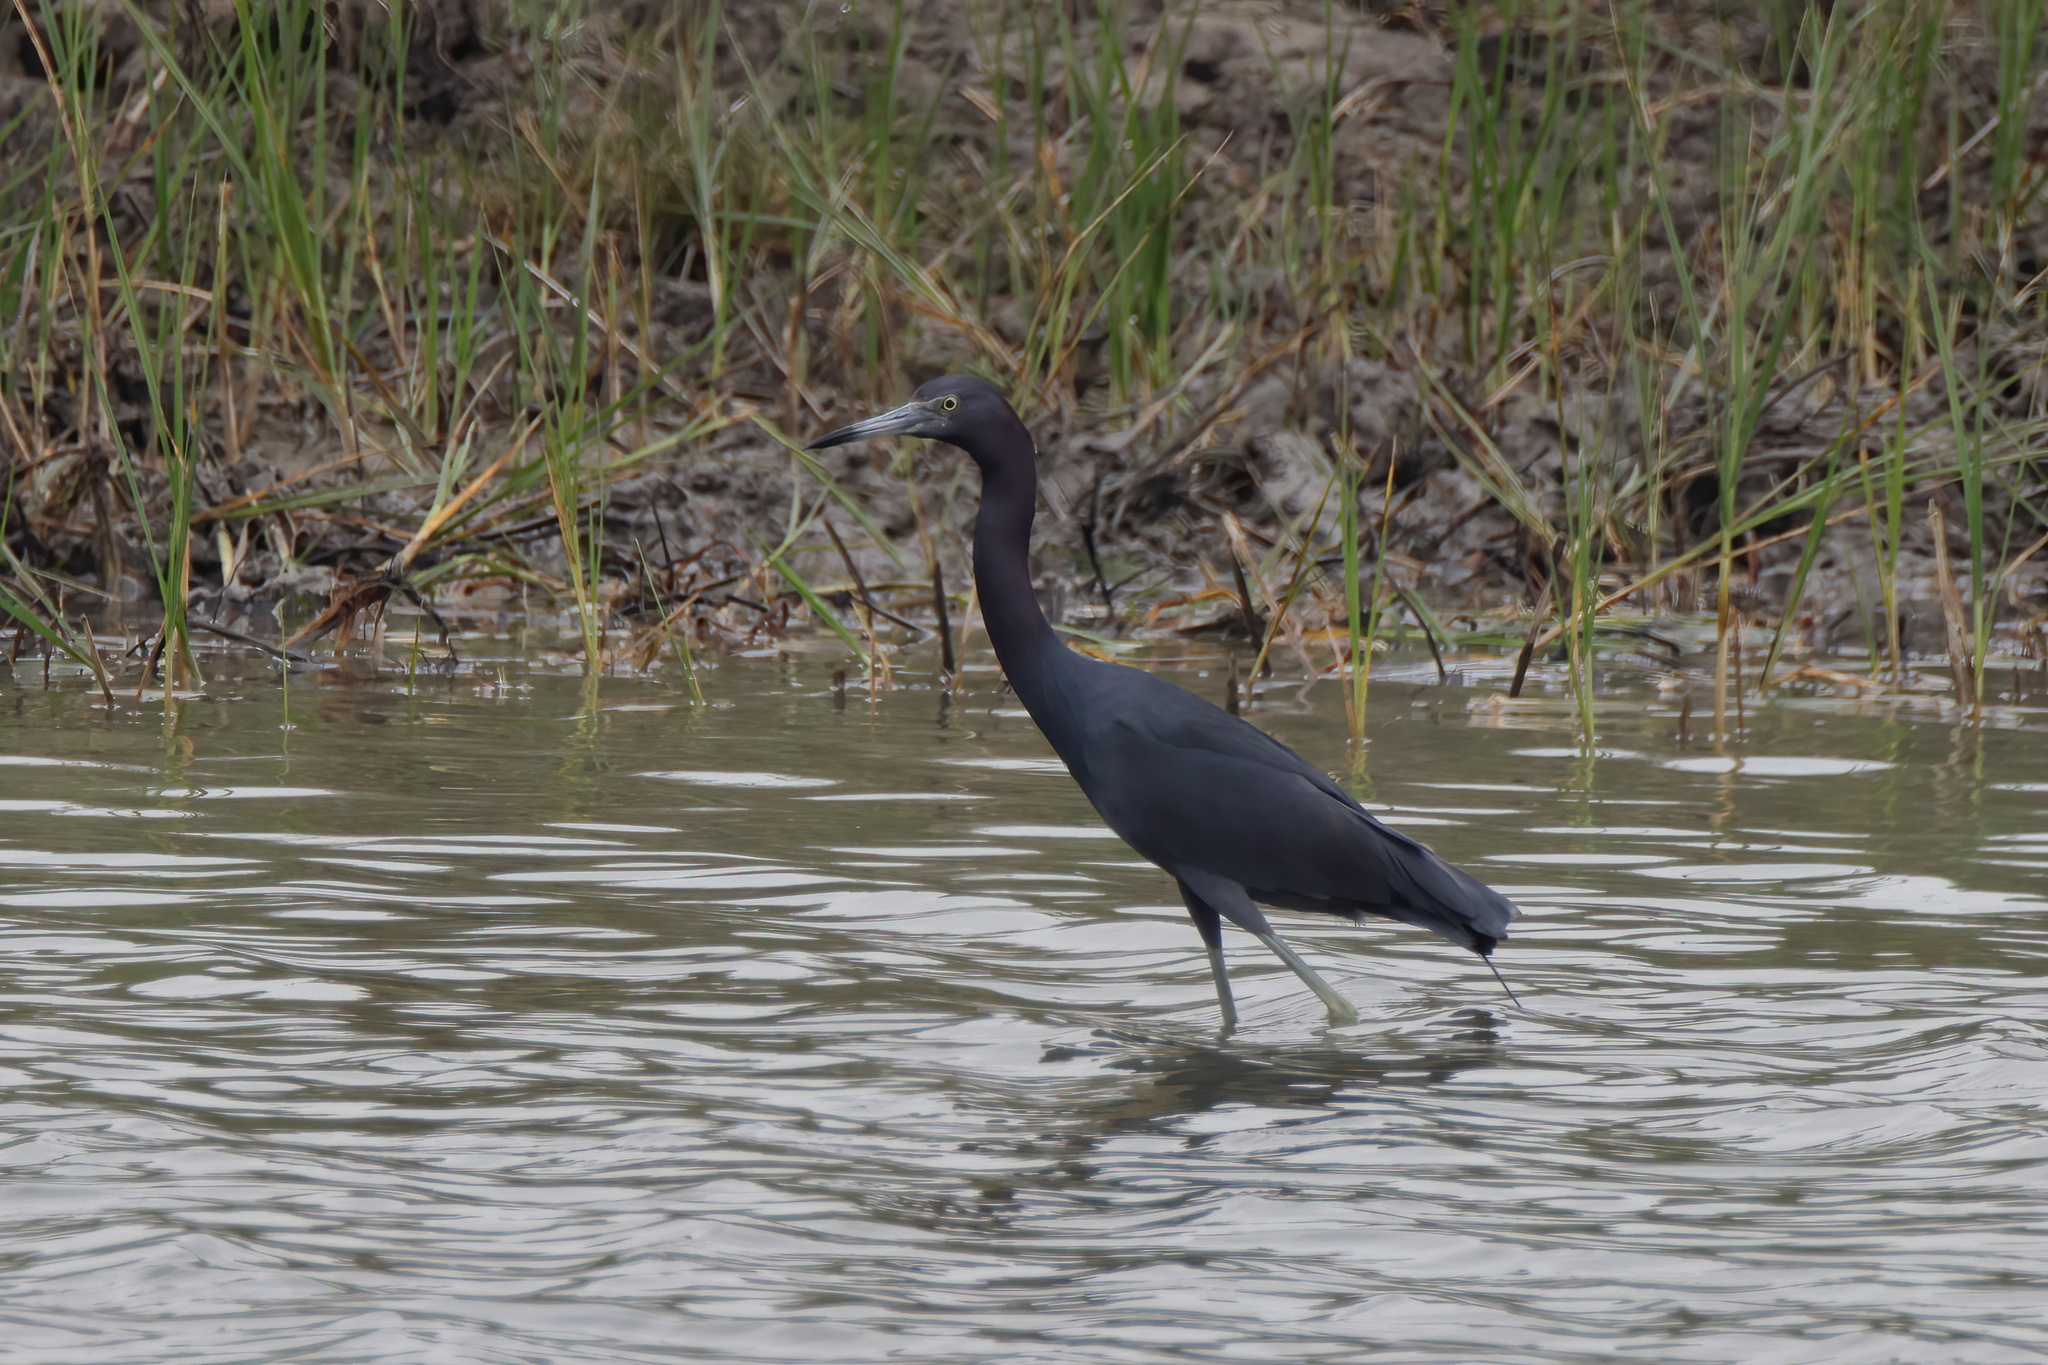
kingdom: Animalia
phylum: Chordata
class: Aves
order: Pelecaniformes
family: Ardeidae
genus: Egretta
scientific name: Egretta caerulea
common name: Little blue heron
